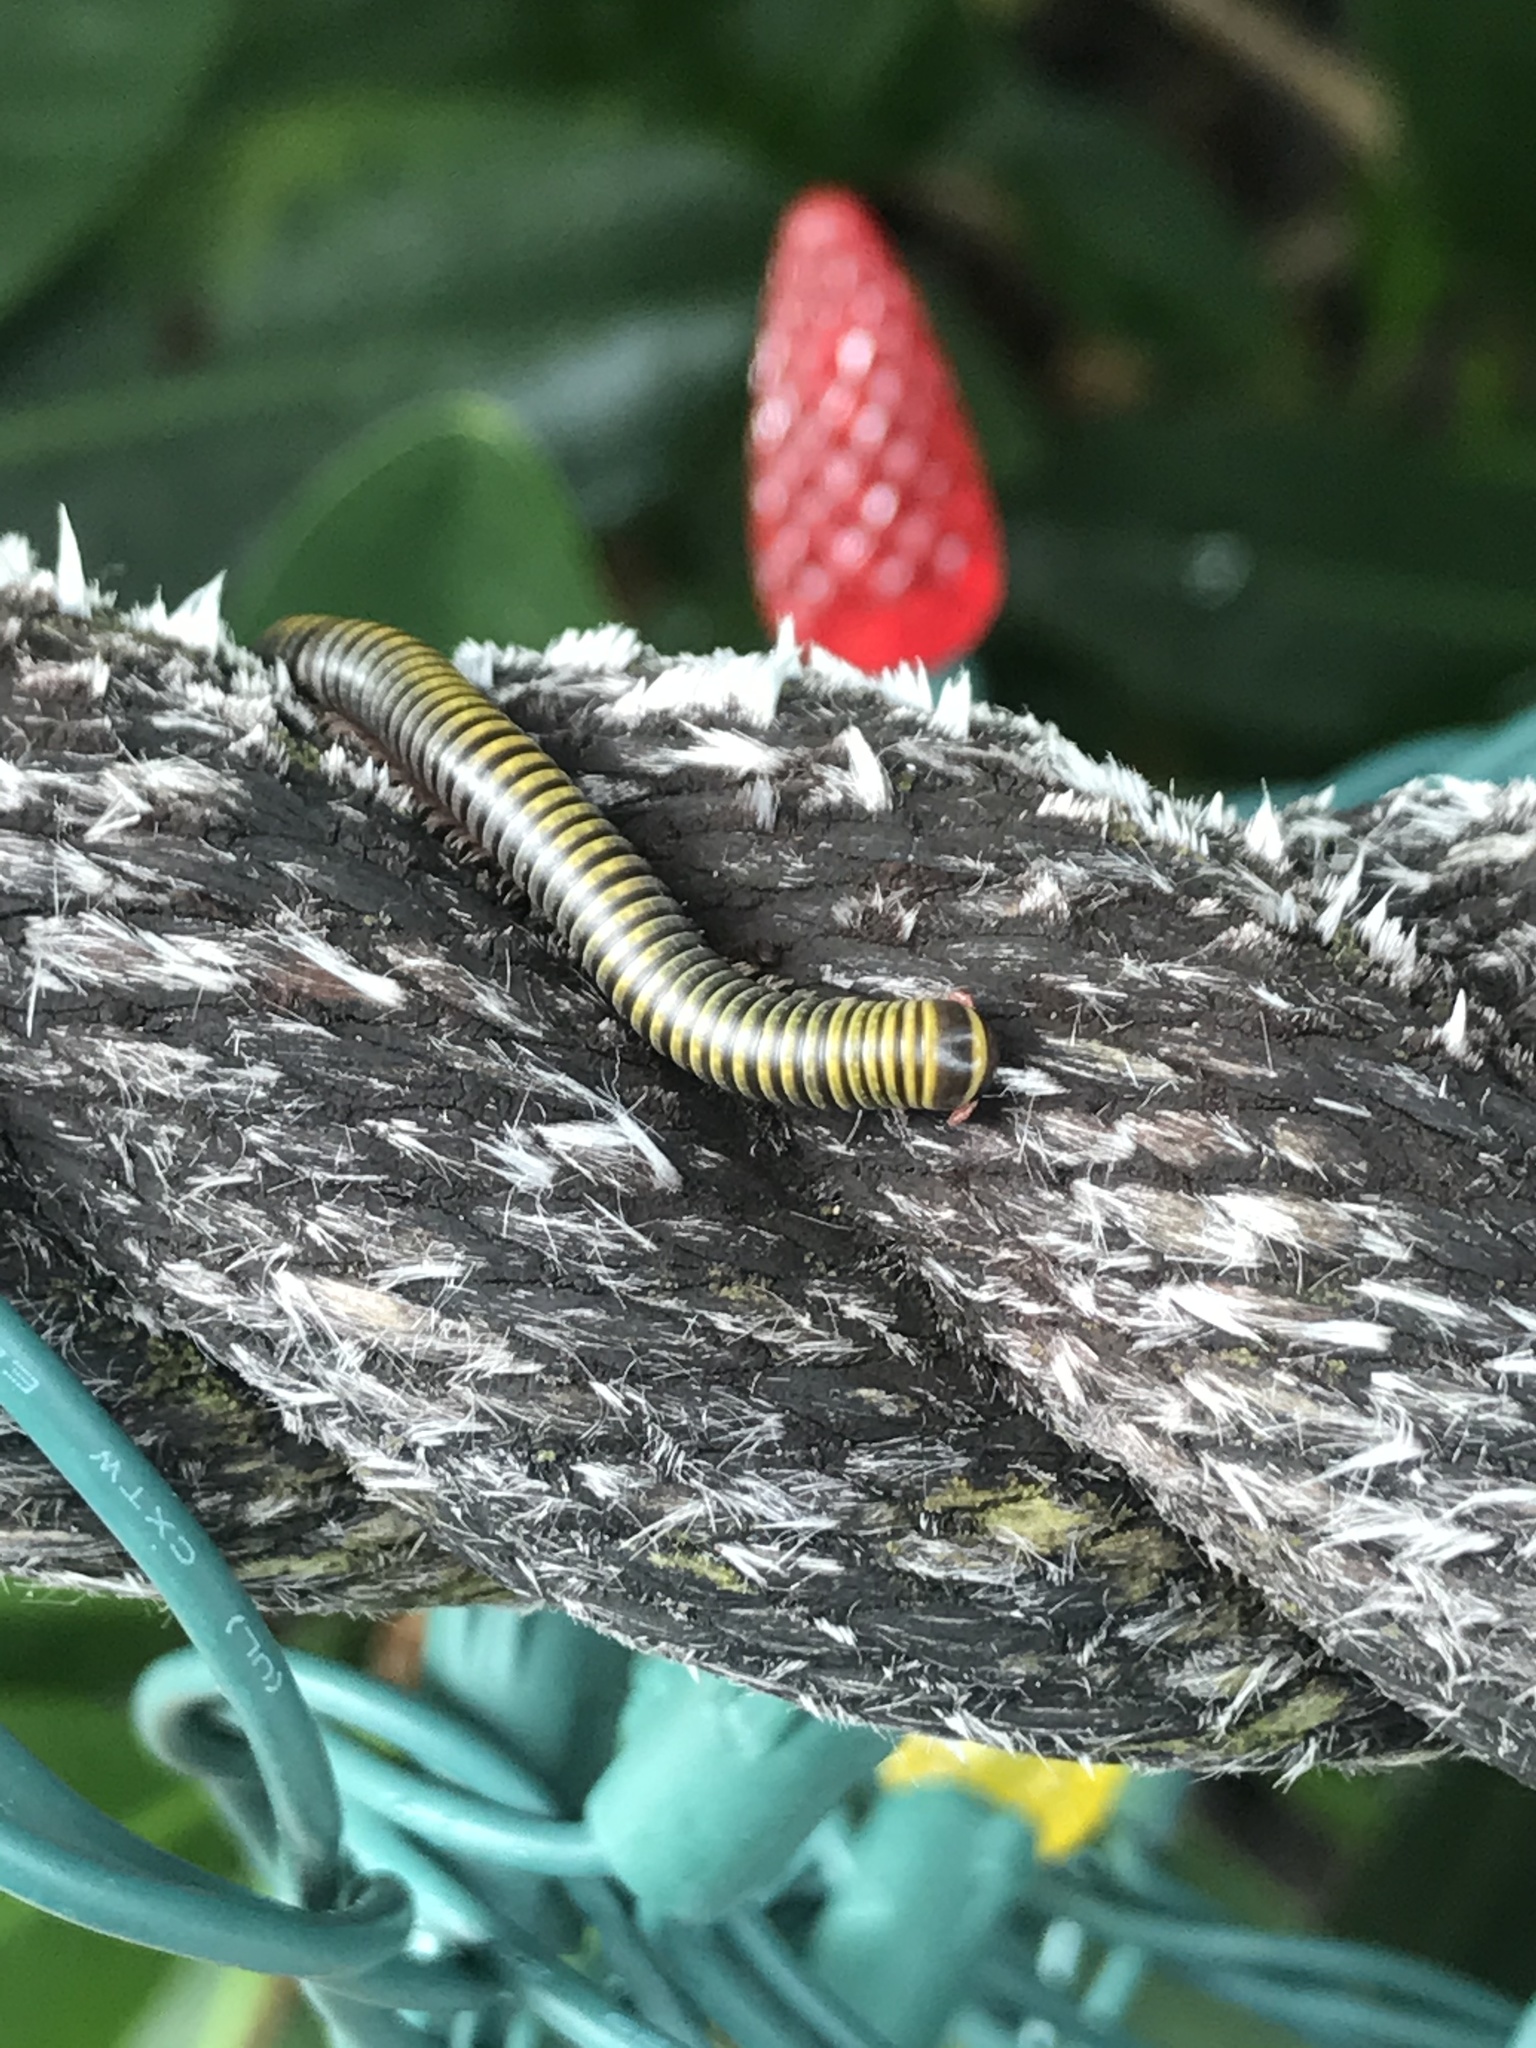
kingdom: Animalia
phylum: Arthropoda
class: Diplopoda
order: Spirobolida
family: Rhinocricidae
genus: Anadenobolus
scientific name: Anadenobolus monilicornis
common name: Caribbean millipede
